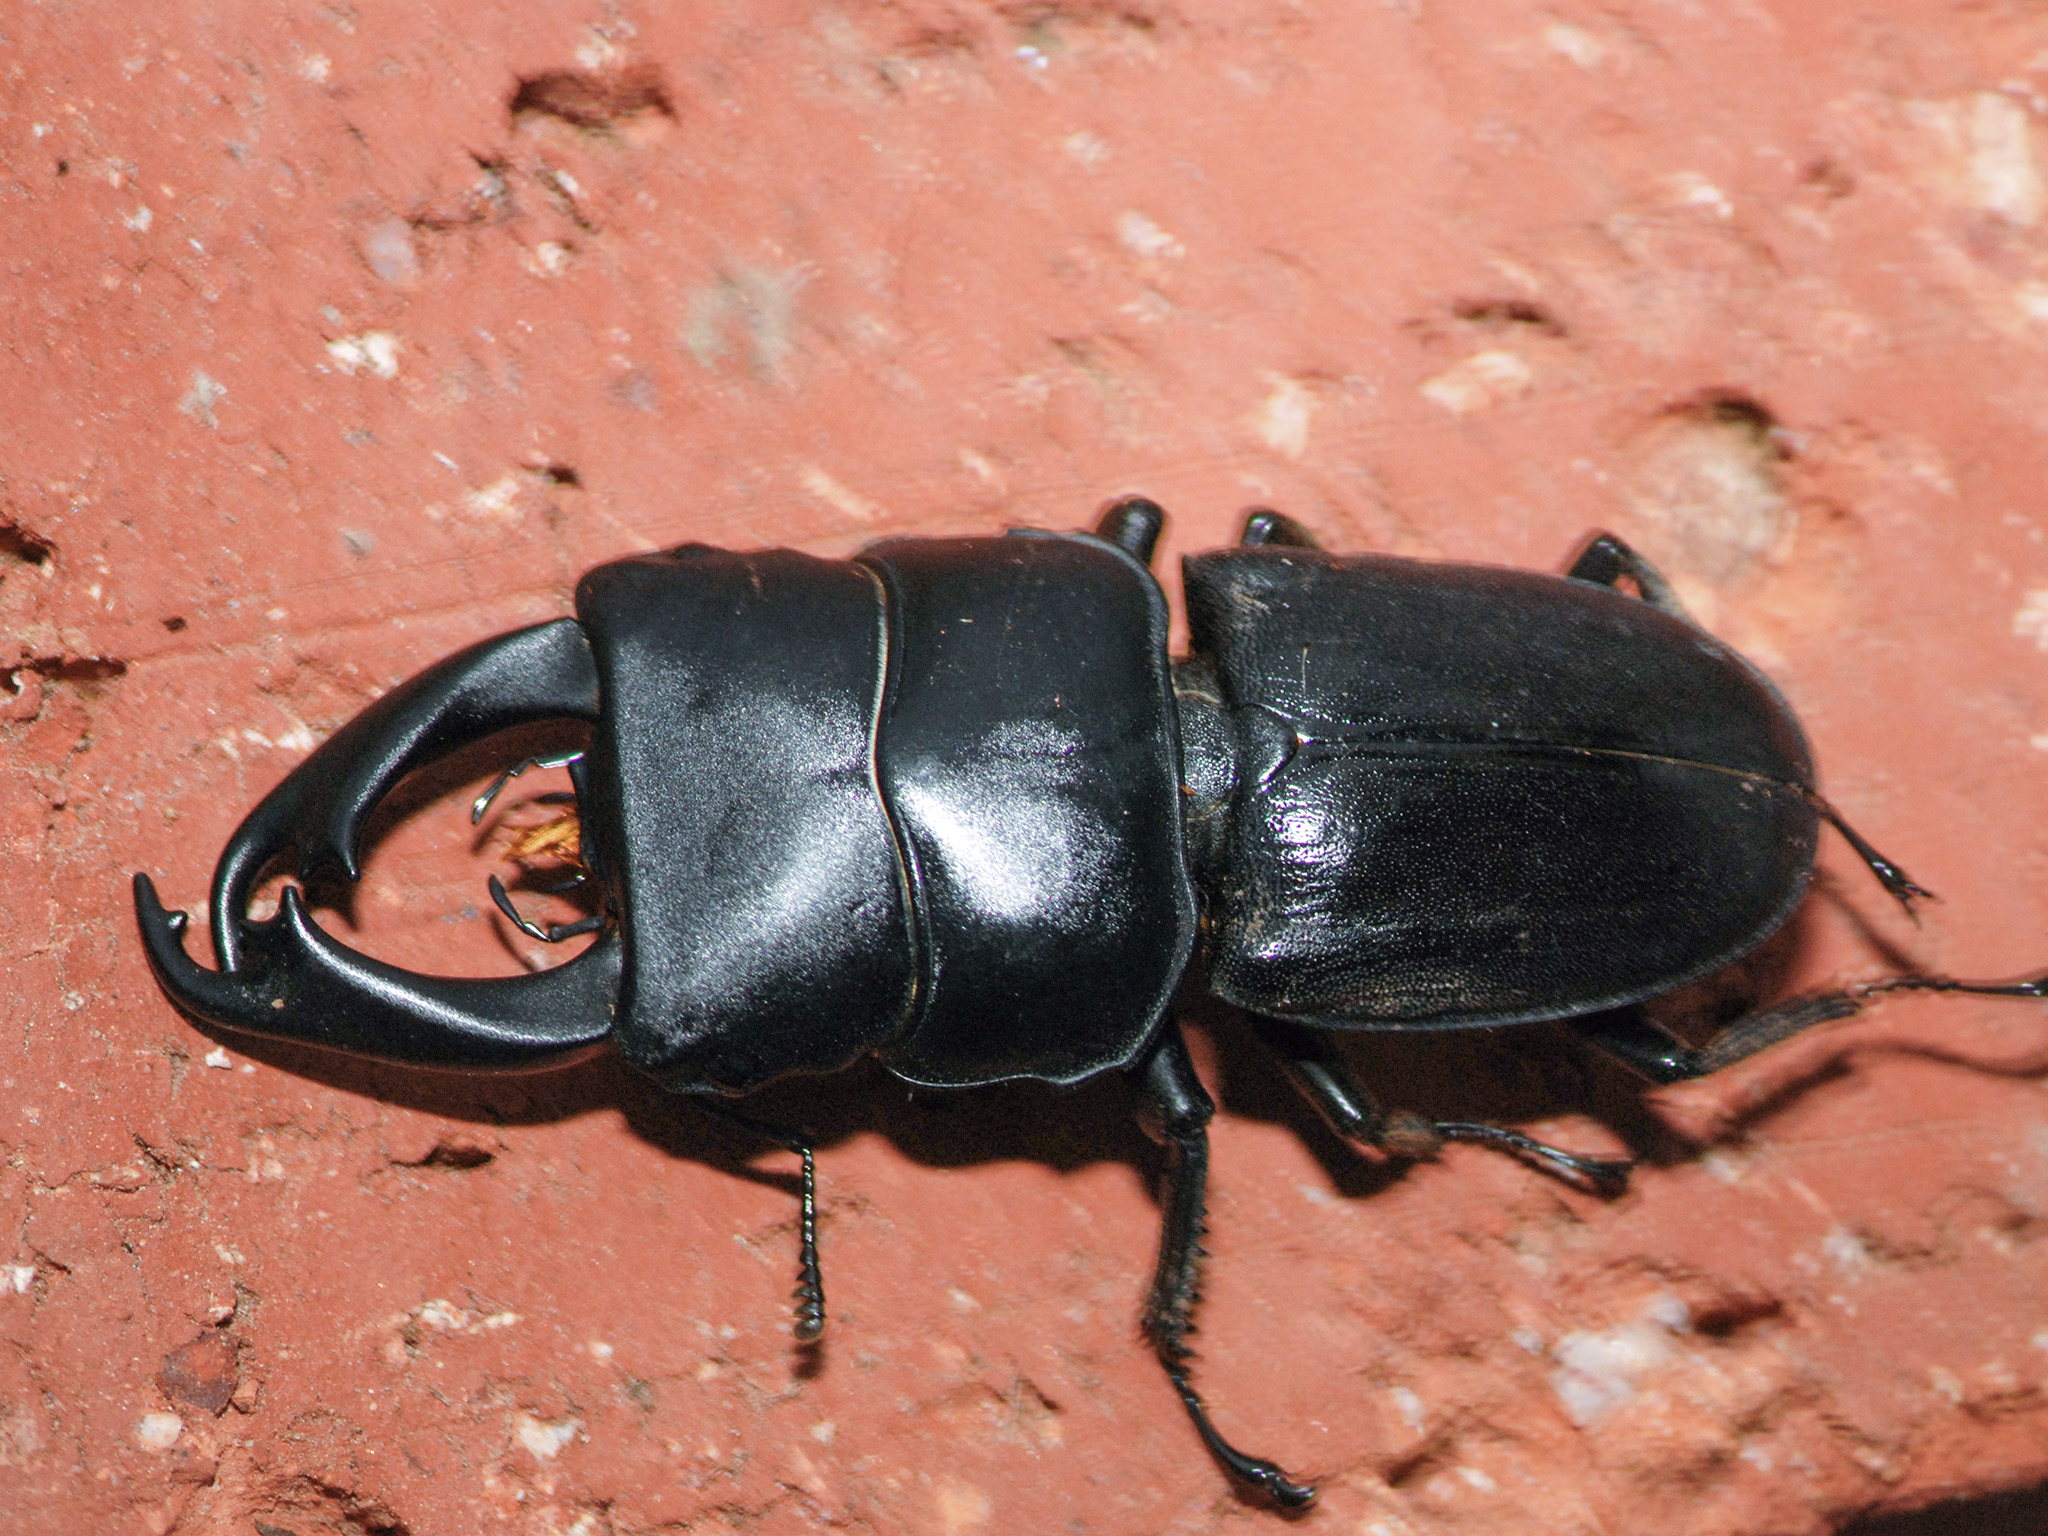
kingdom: Animalia
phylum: Arthropoda
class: Insecta
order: Coleoptera
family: Lucanidae
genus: Dorcus
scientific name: Dorcus reichei
